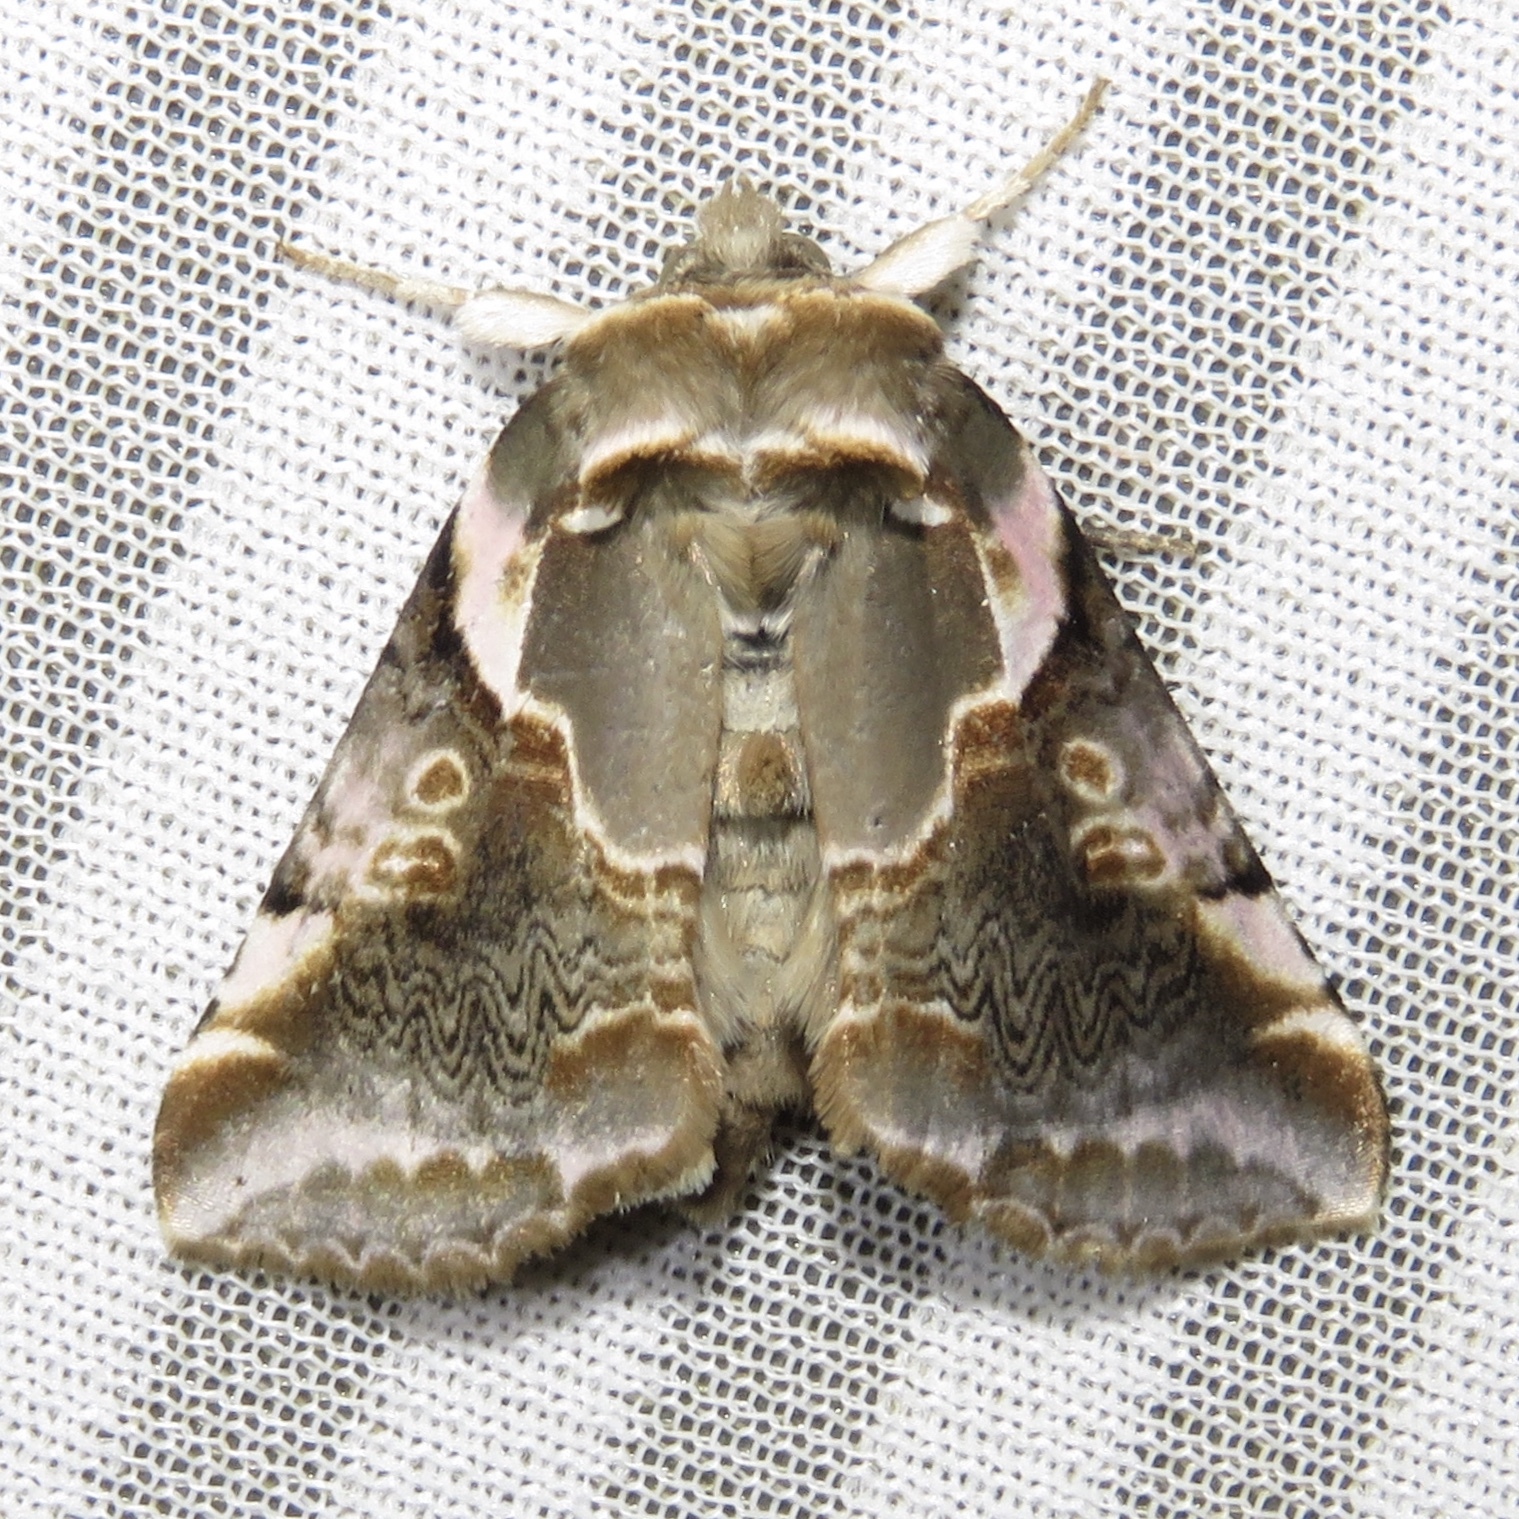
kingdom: Animalia
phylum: Arthropoda
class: Insecta
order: Lepidoptera
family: Drepanidae
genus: Habrosyne
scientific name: Habrosyne gloriosa
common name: Glorious habrosyne moth
